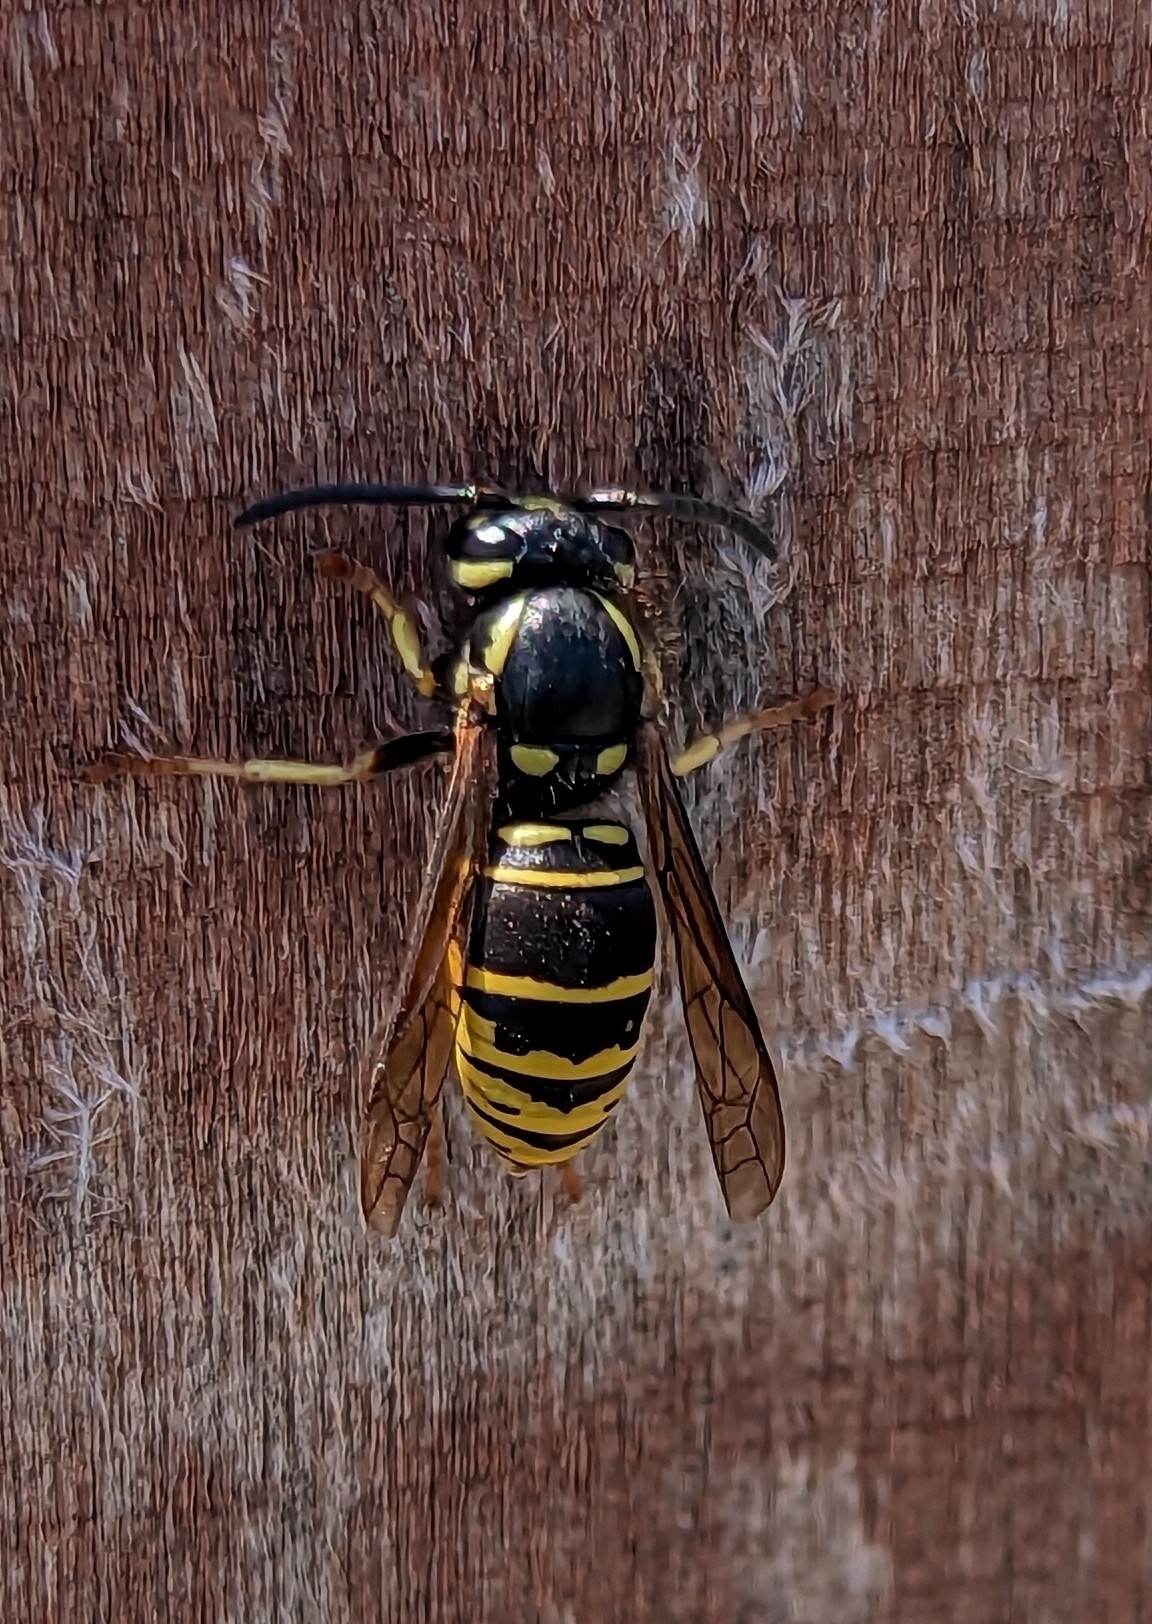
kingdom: Animalia
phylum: Arthropoda
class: Insecta
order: Hymenoptera
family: Vespidae
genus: Vespula
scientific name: Vespula vidua
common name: Widow yellowjacket
